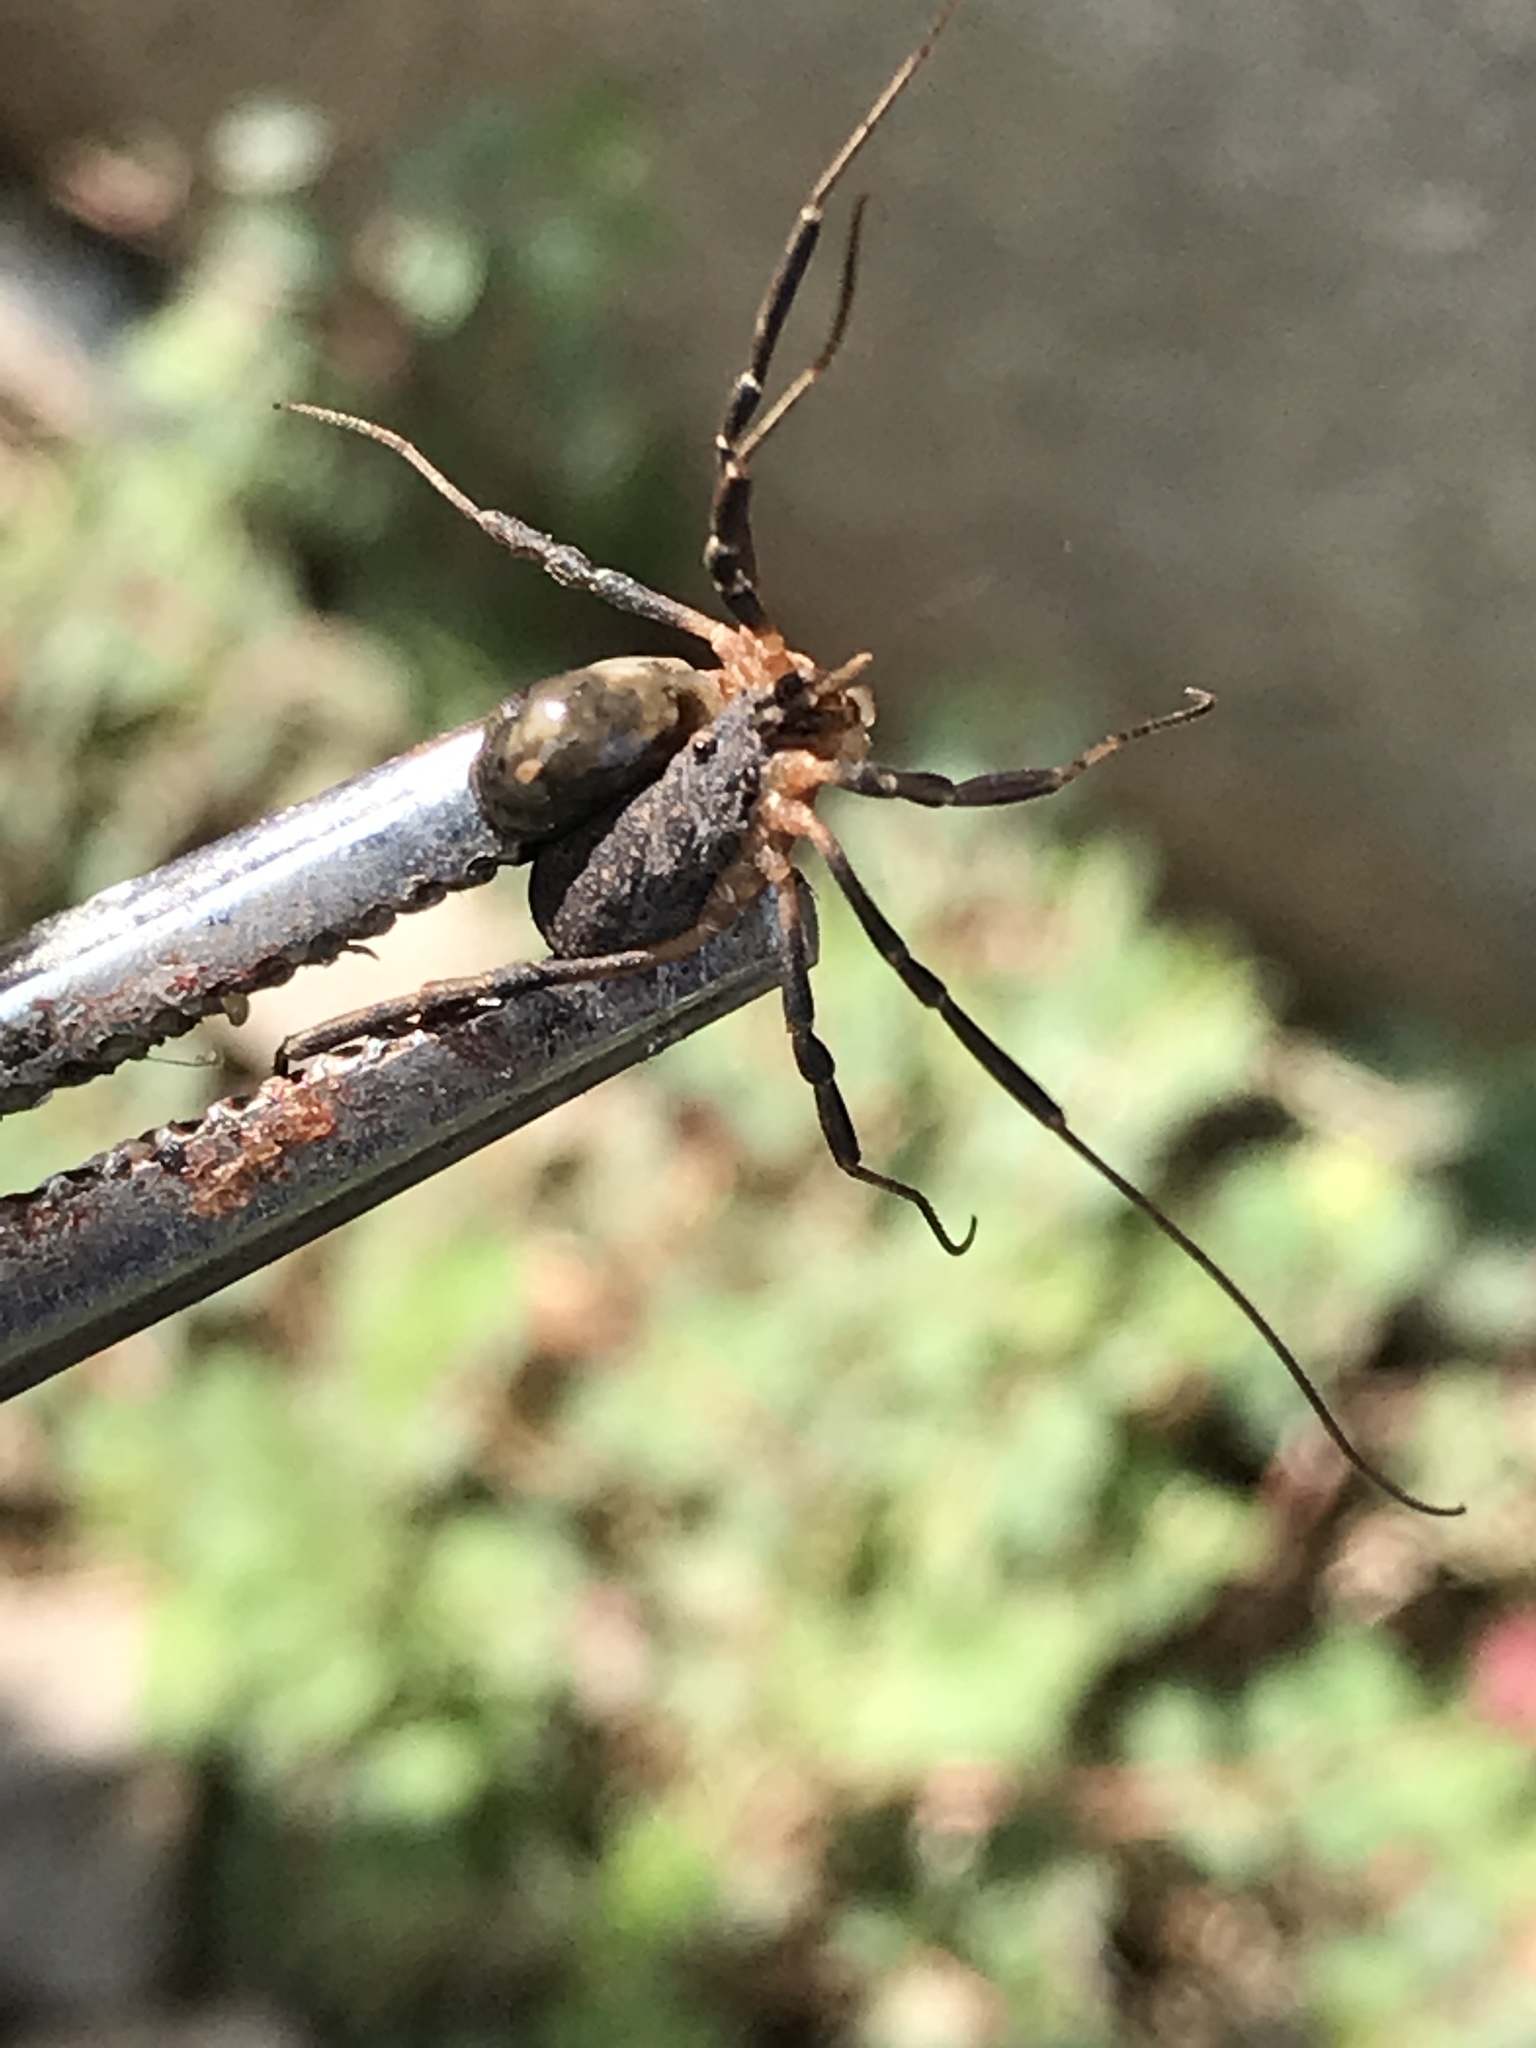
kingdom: Animalia
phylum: Arthropoda
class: Arachnida
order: Opiliones
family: Sclerosomatidae
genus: Eumesosoma
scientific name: Eumesosoma roeweri
